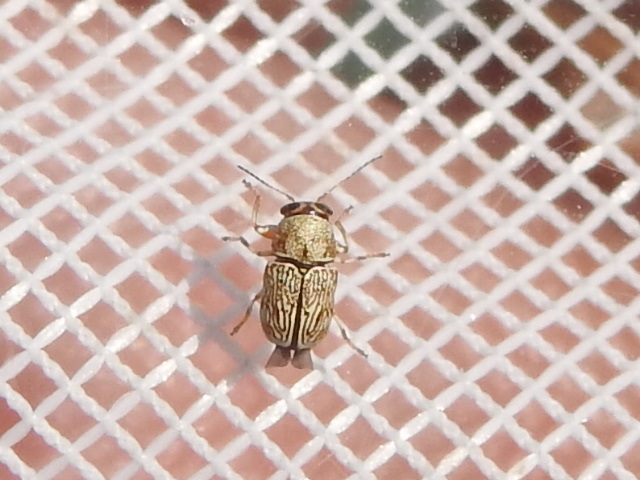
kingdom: Animalia
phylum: Arthropoda
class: Insecta
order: Coleoptera
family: Chrysomelidae
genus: Pachybrachis
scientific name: Pachybrachis caelatus
